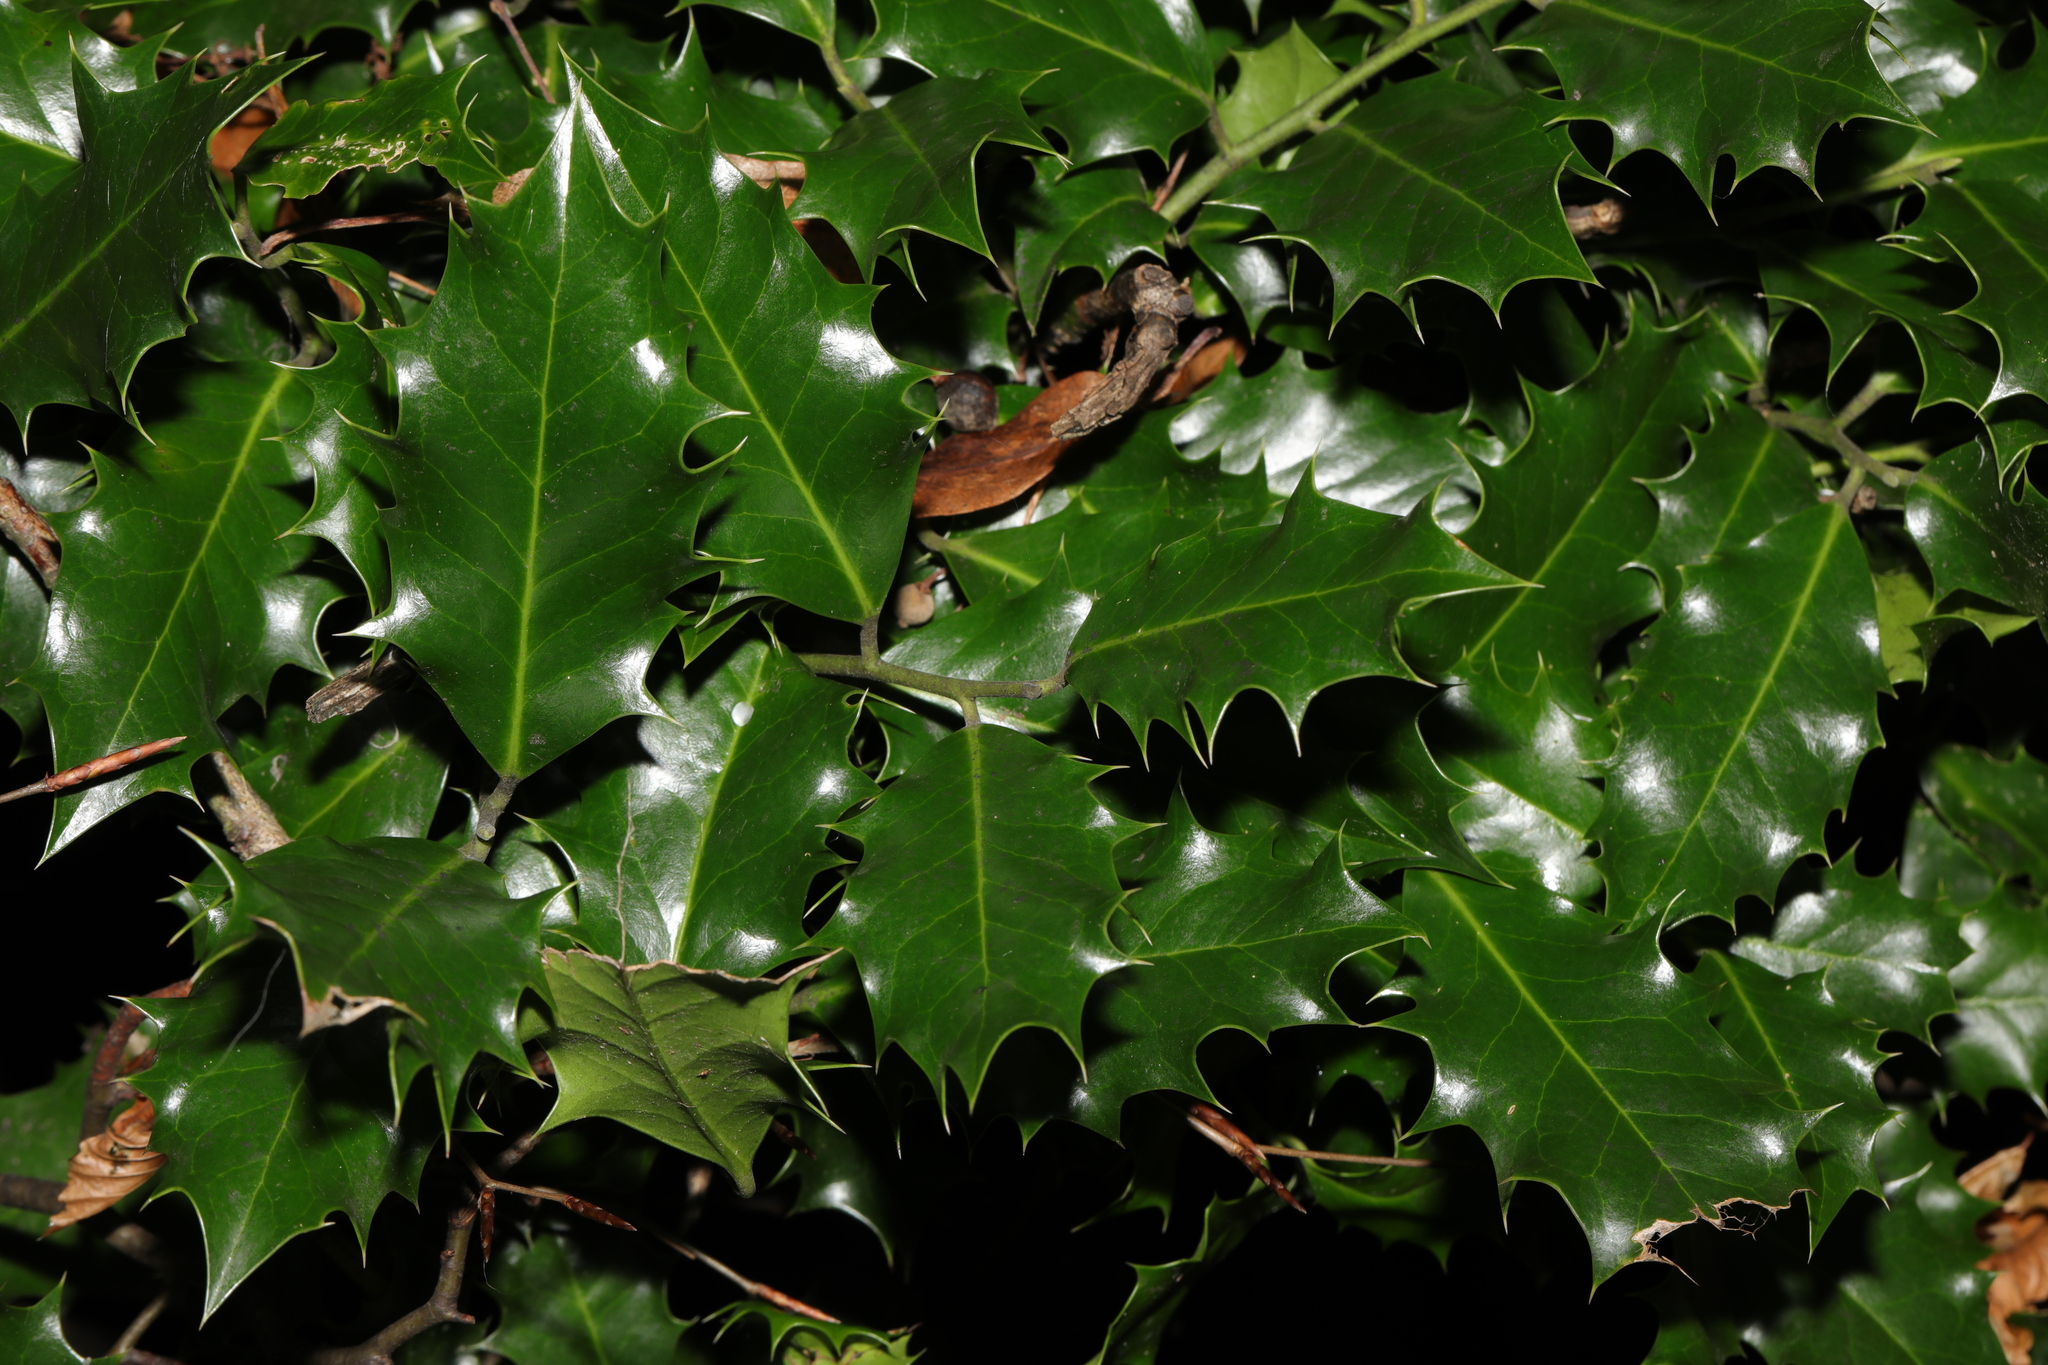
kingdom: Plantae
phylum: Tracheophyta
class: Magnoliopsida
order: Aquifoliales
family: Aquifoliaceae
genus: Ilex
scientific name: Ilex aquifolium
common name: English holly
